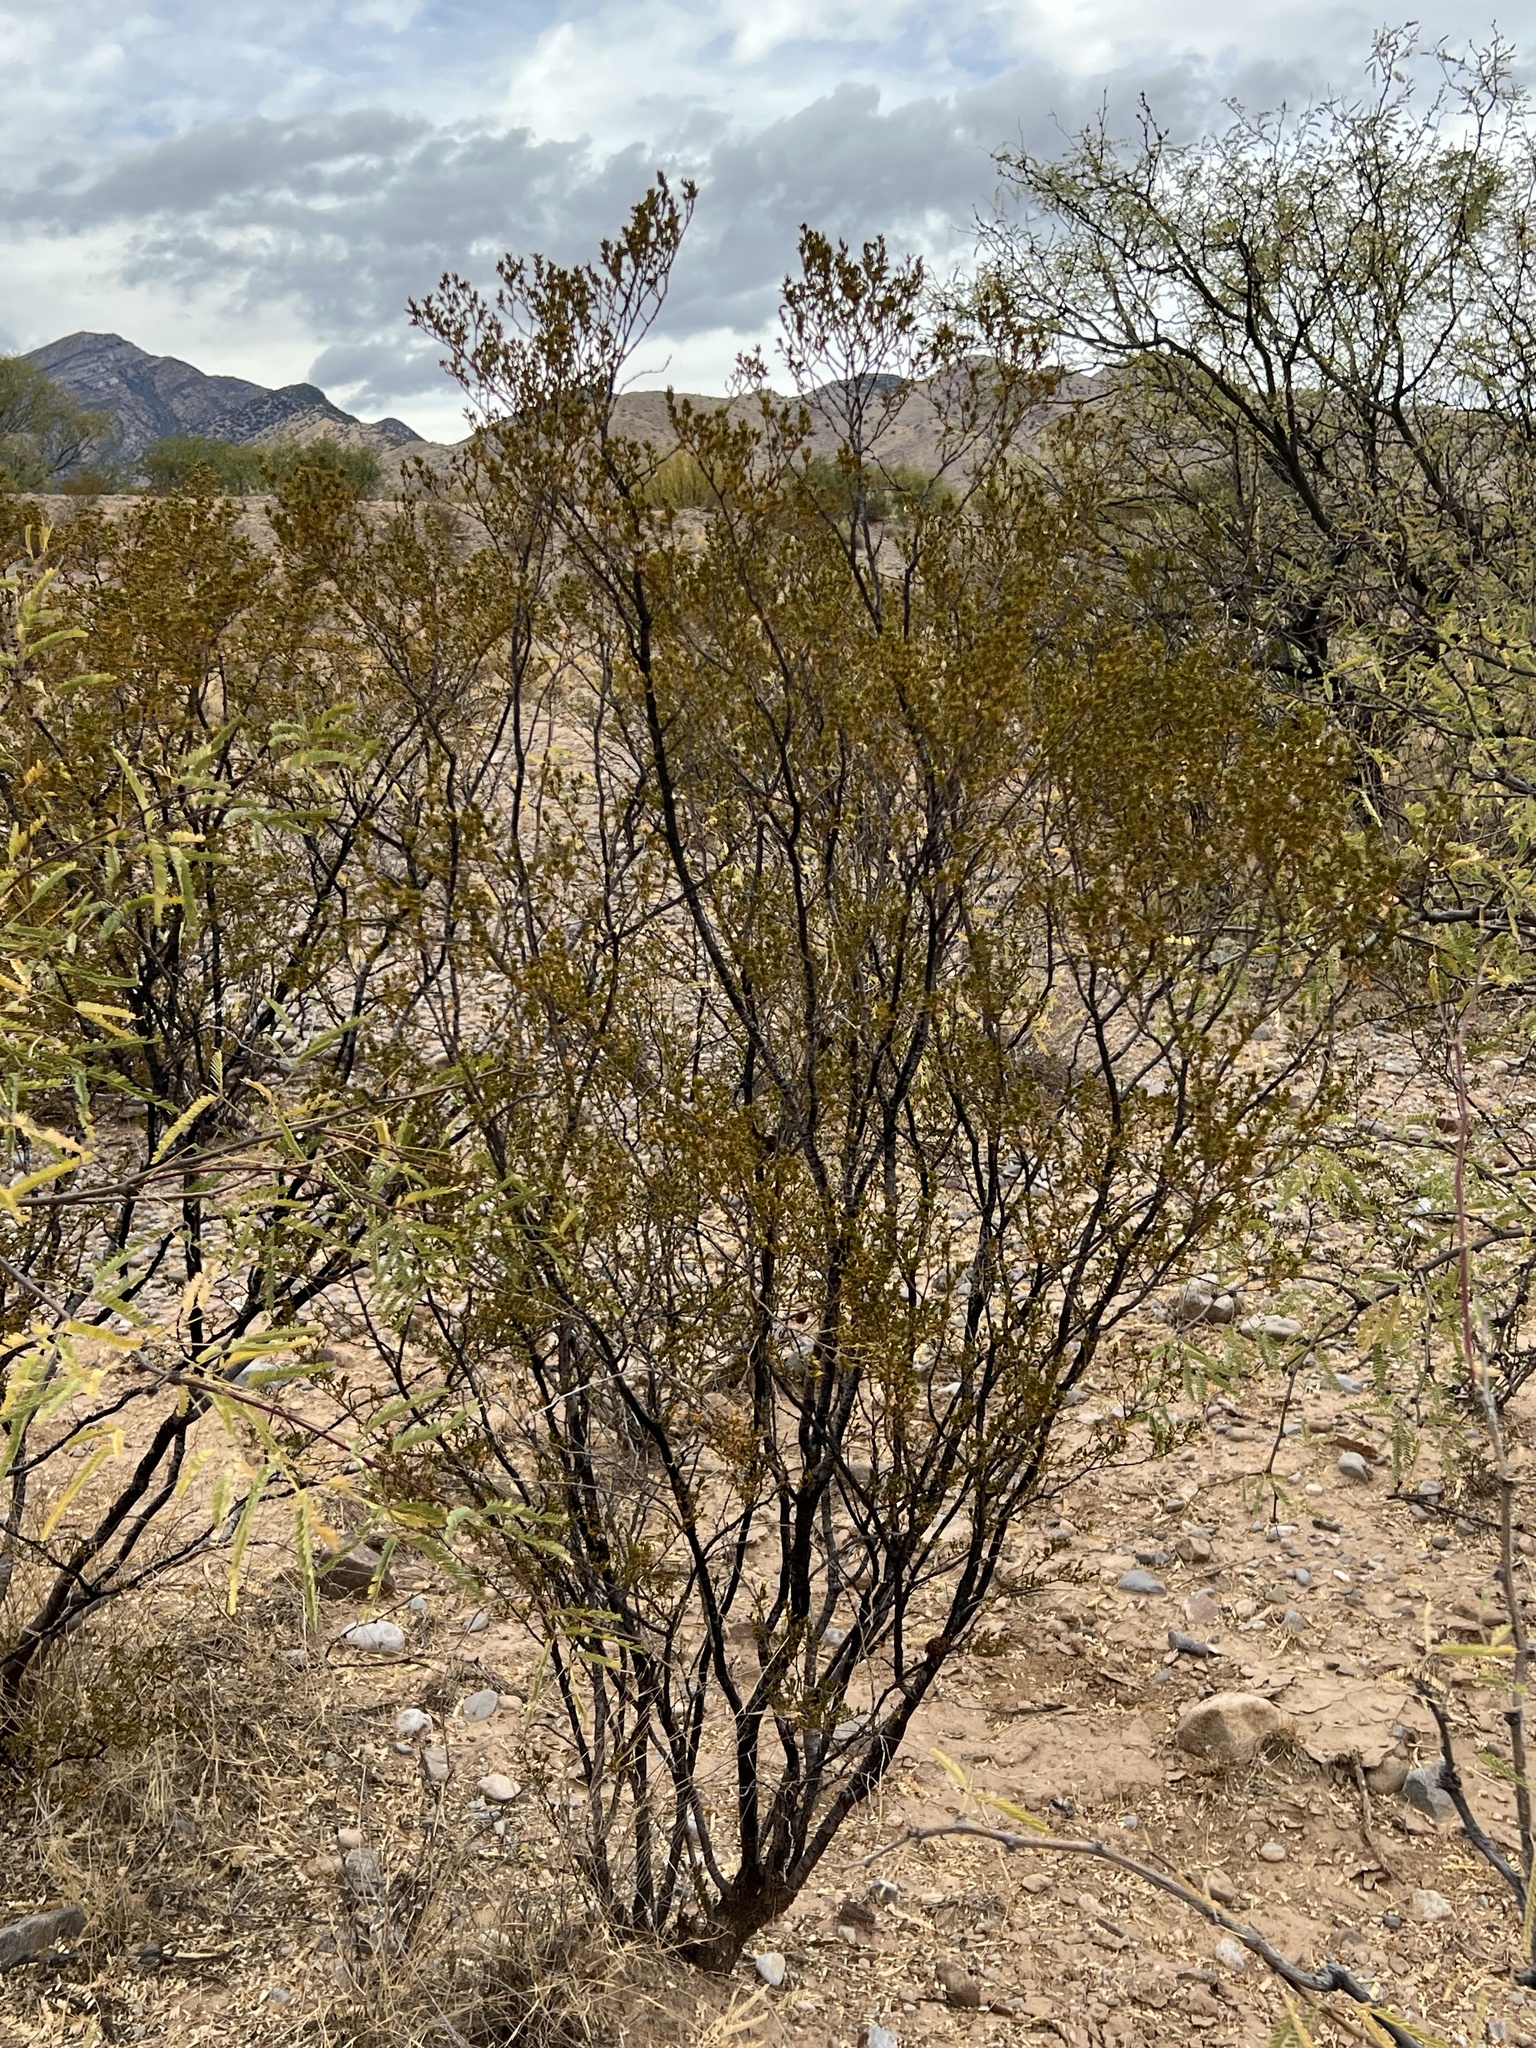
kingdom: Plantae
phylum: Tracheophyta
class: Magnoliopsida
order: Zygophyllales
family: Zygophyllaceae
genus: Larrea
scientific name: Larrea tridentata
